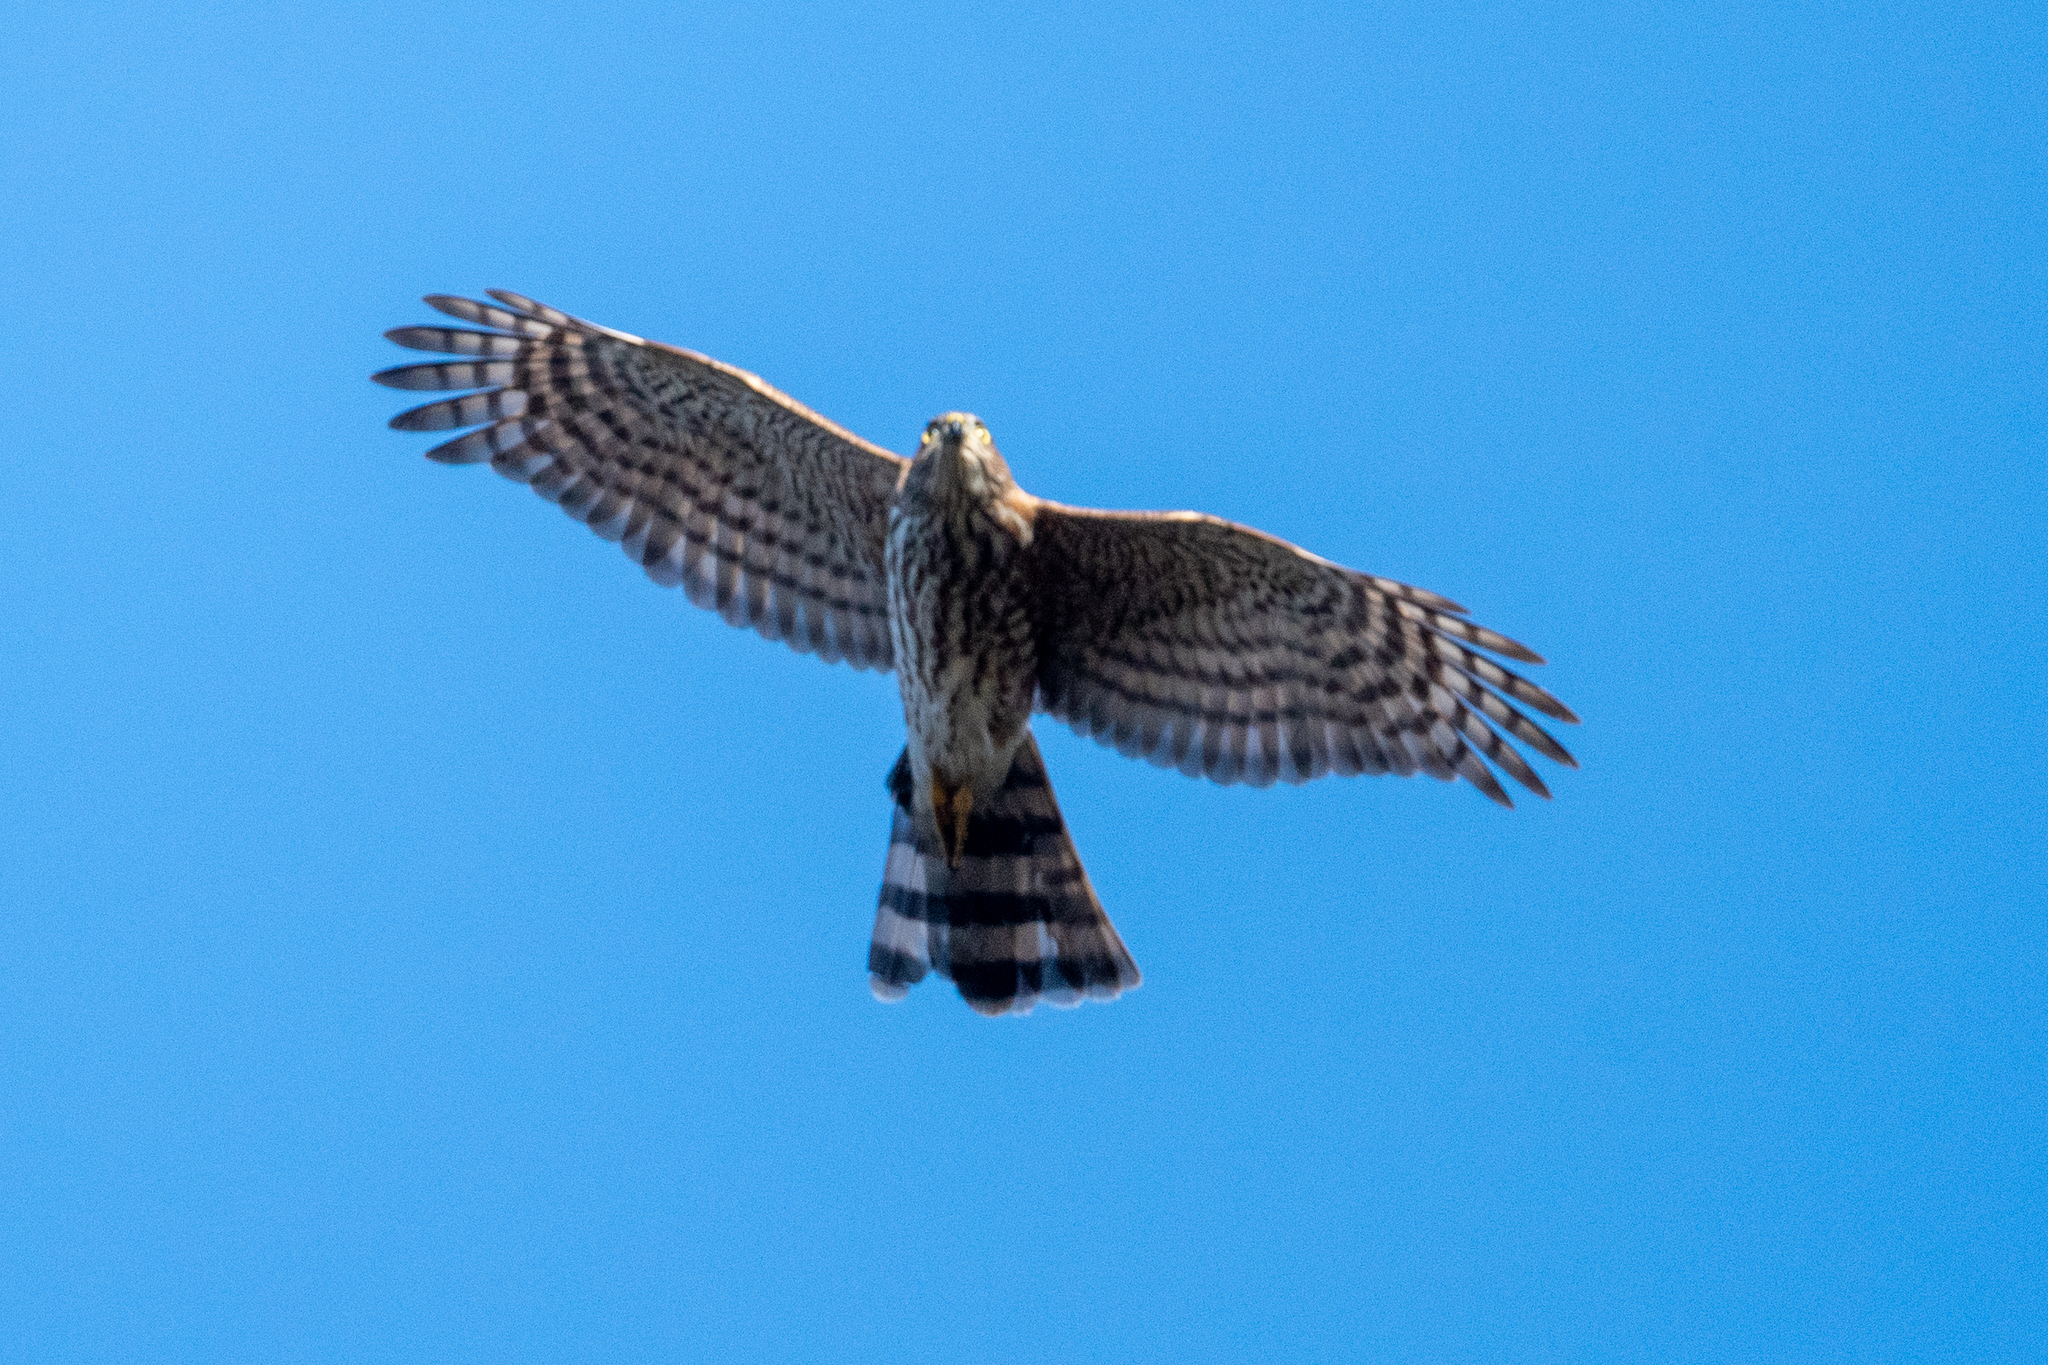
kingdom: Animalia
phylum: Chordata
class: Aves
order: Accipitriformes
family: Accipitridae
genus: Accipiter
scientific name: Accipiter striatus
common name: Sharp-shinned hawk
